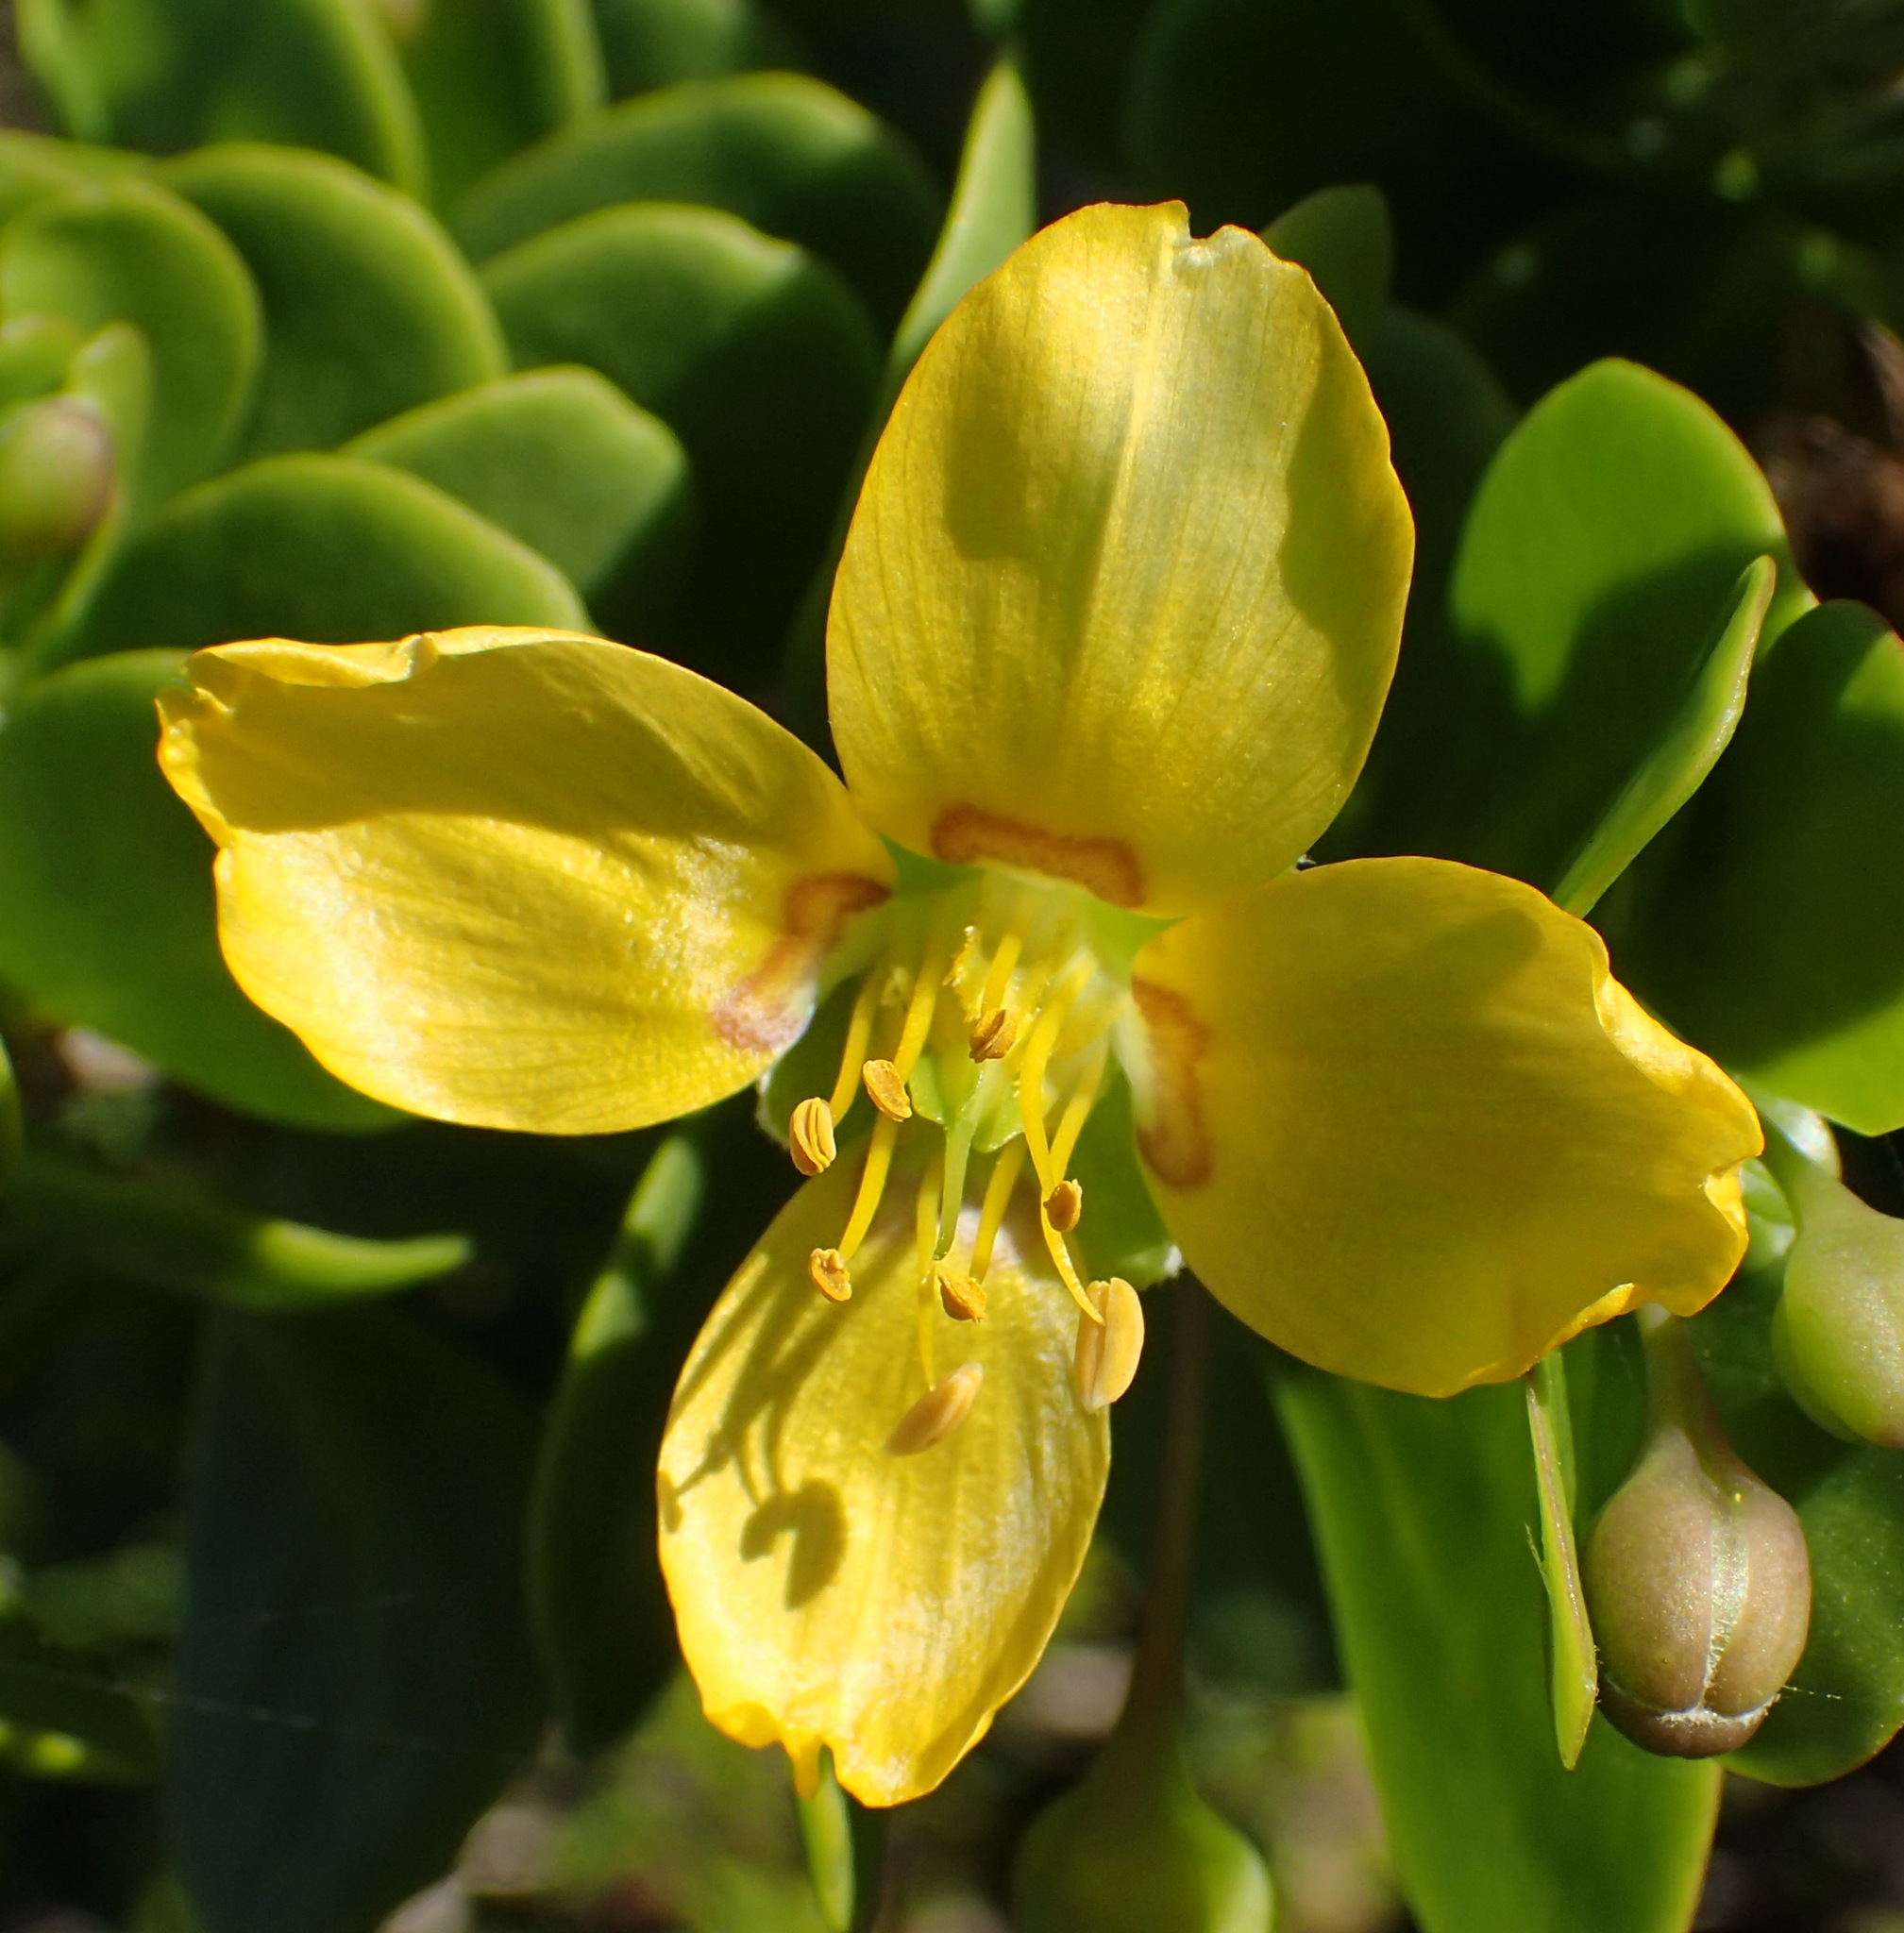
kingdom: Plantae
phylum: Tracheophyta
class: Magnoliopsida
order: Zygophyllales
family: Zygophyllaceae
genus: Roepera
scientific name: Roepera morgsana
